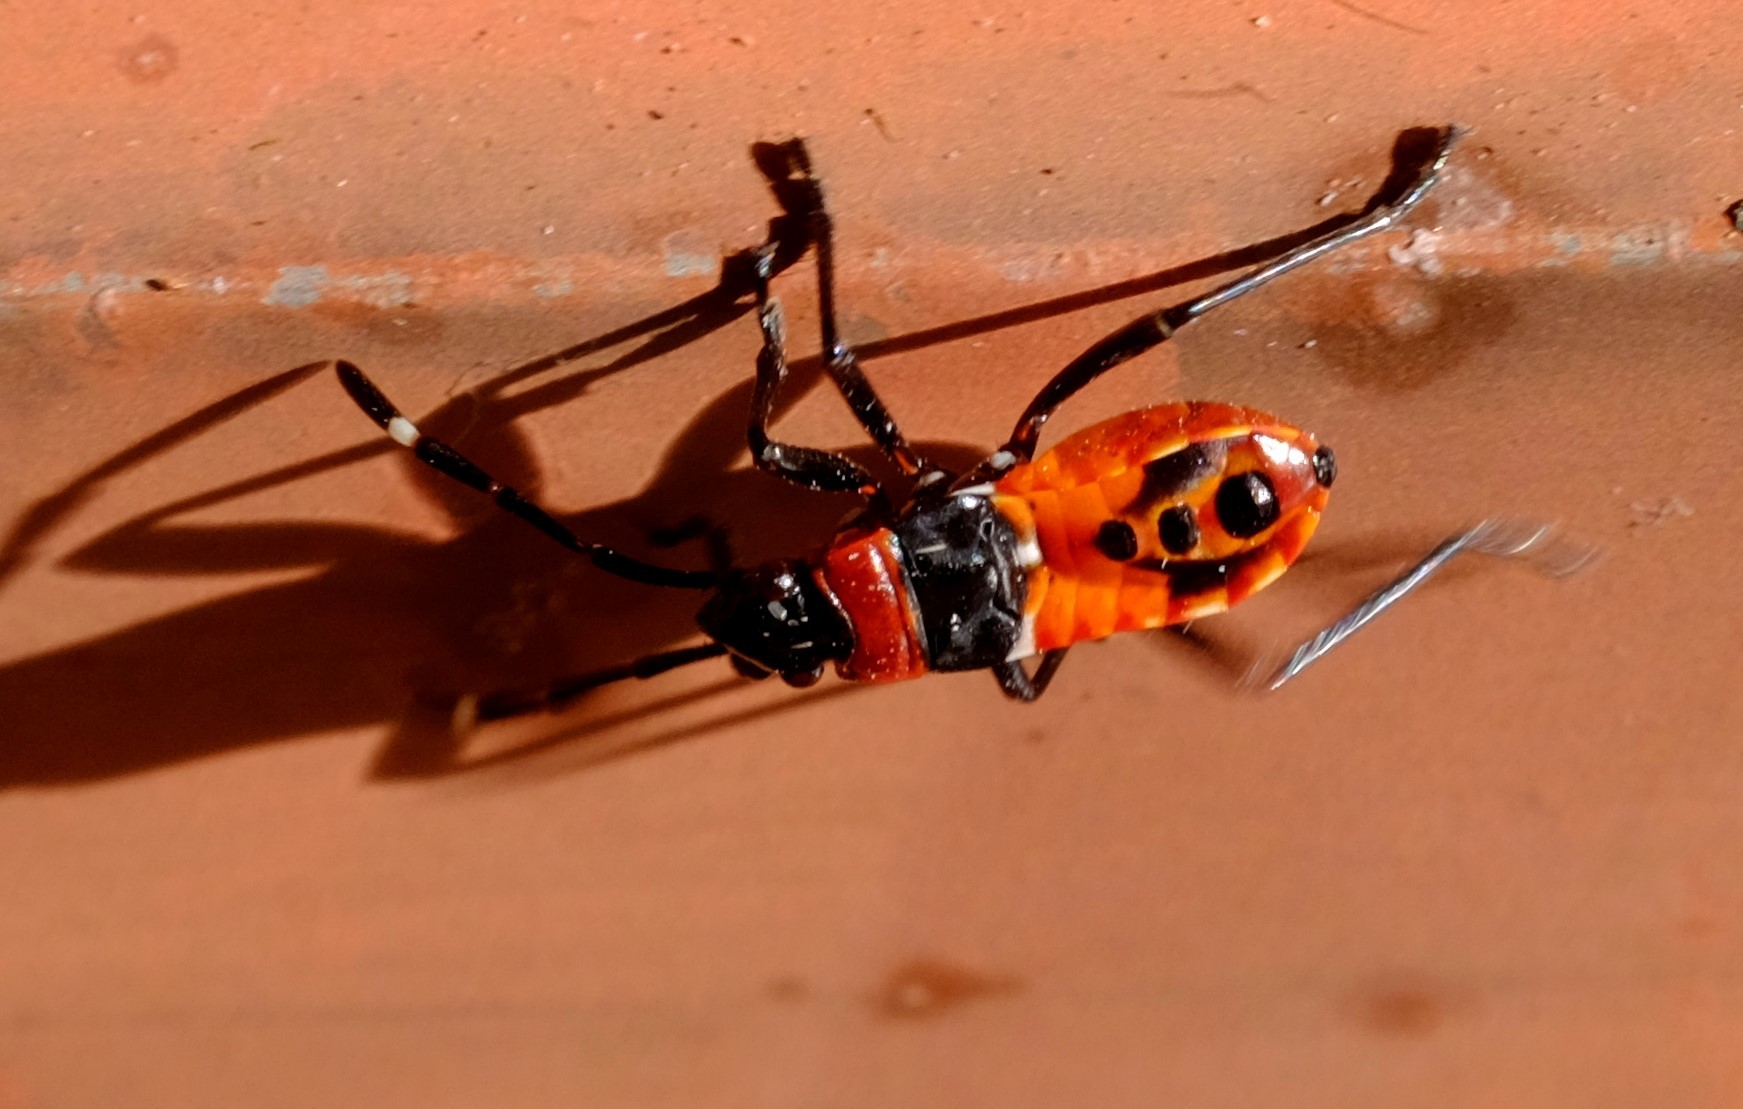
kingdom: Animalia
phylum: Arthropoda
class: Insecta
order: Hemiptera
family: Pyrrhocoridae
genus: Dindymus
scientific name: Dindymus
